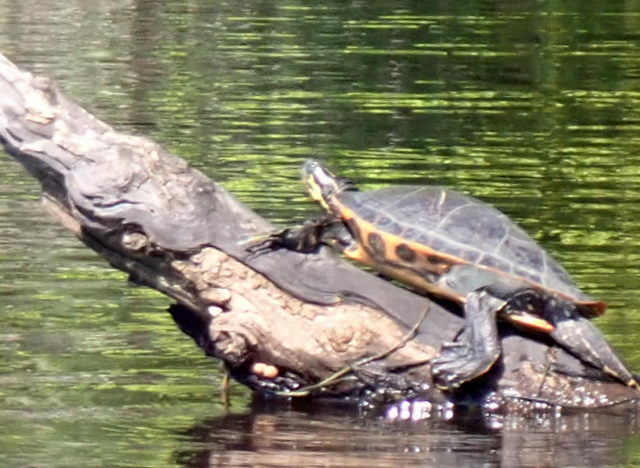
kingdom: Animalia
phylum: Chordata
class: Testudines
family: Emydidae
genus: Pseudemys
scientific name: Pseudemys concinna
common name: Eastern river cooter
